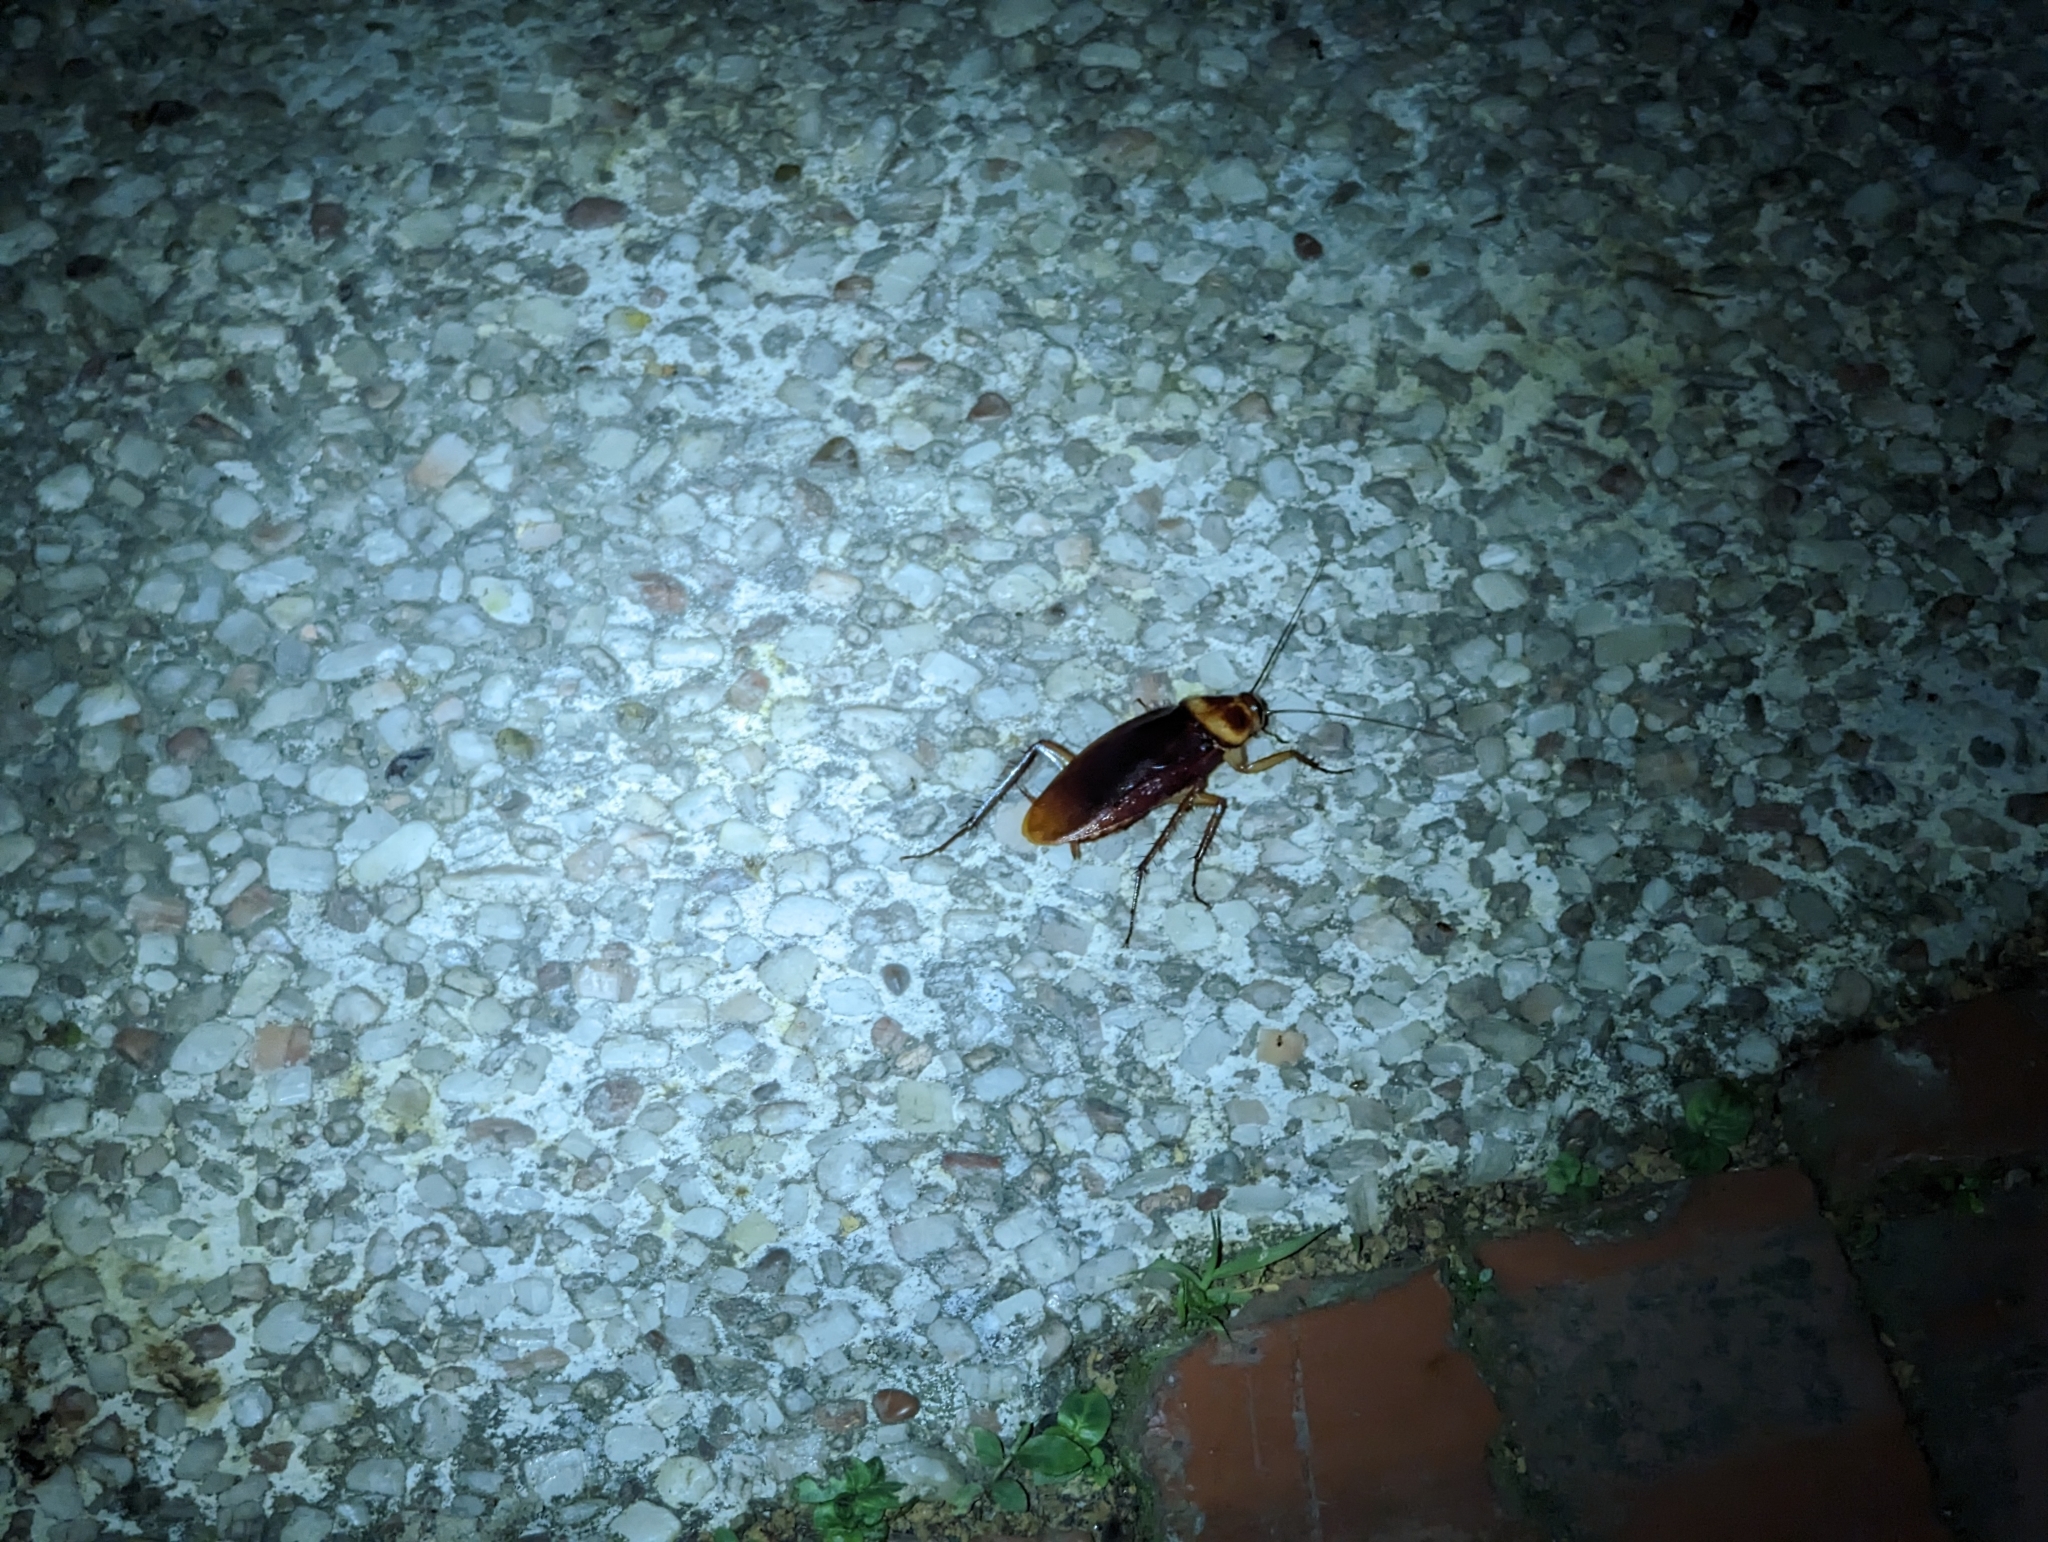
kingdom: Animalia
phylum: Arthropoda
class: Insecta
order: Blattodea
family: Blattidae
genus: Periplaneta
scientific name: Periplaneta americana
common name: American cockroach
